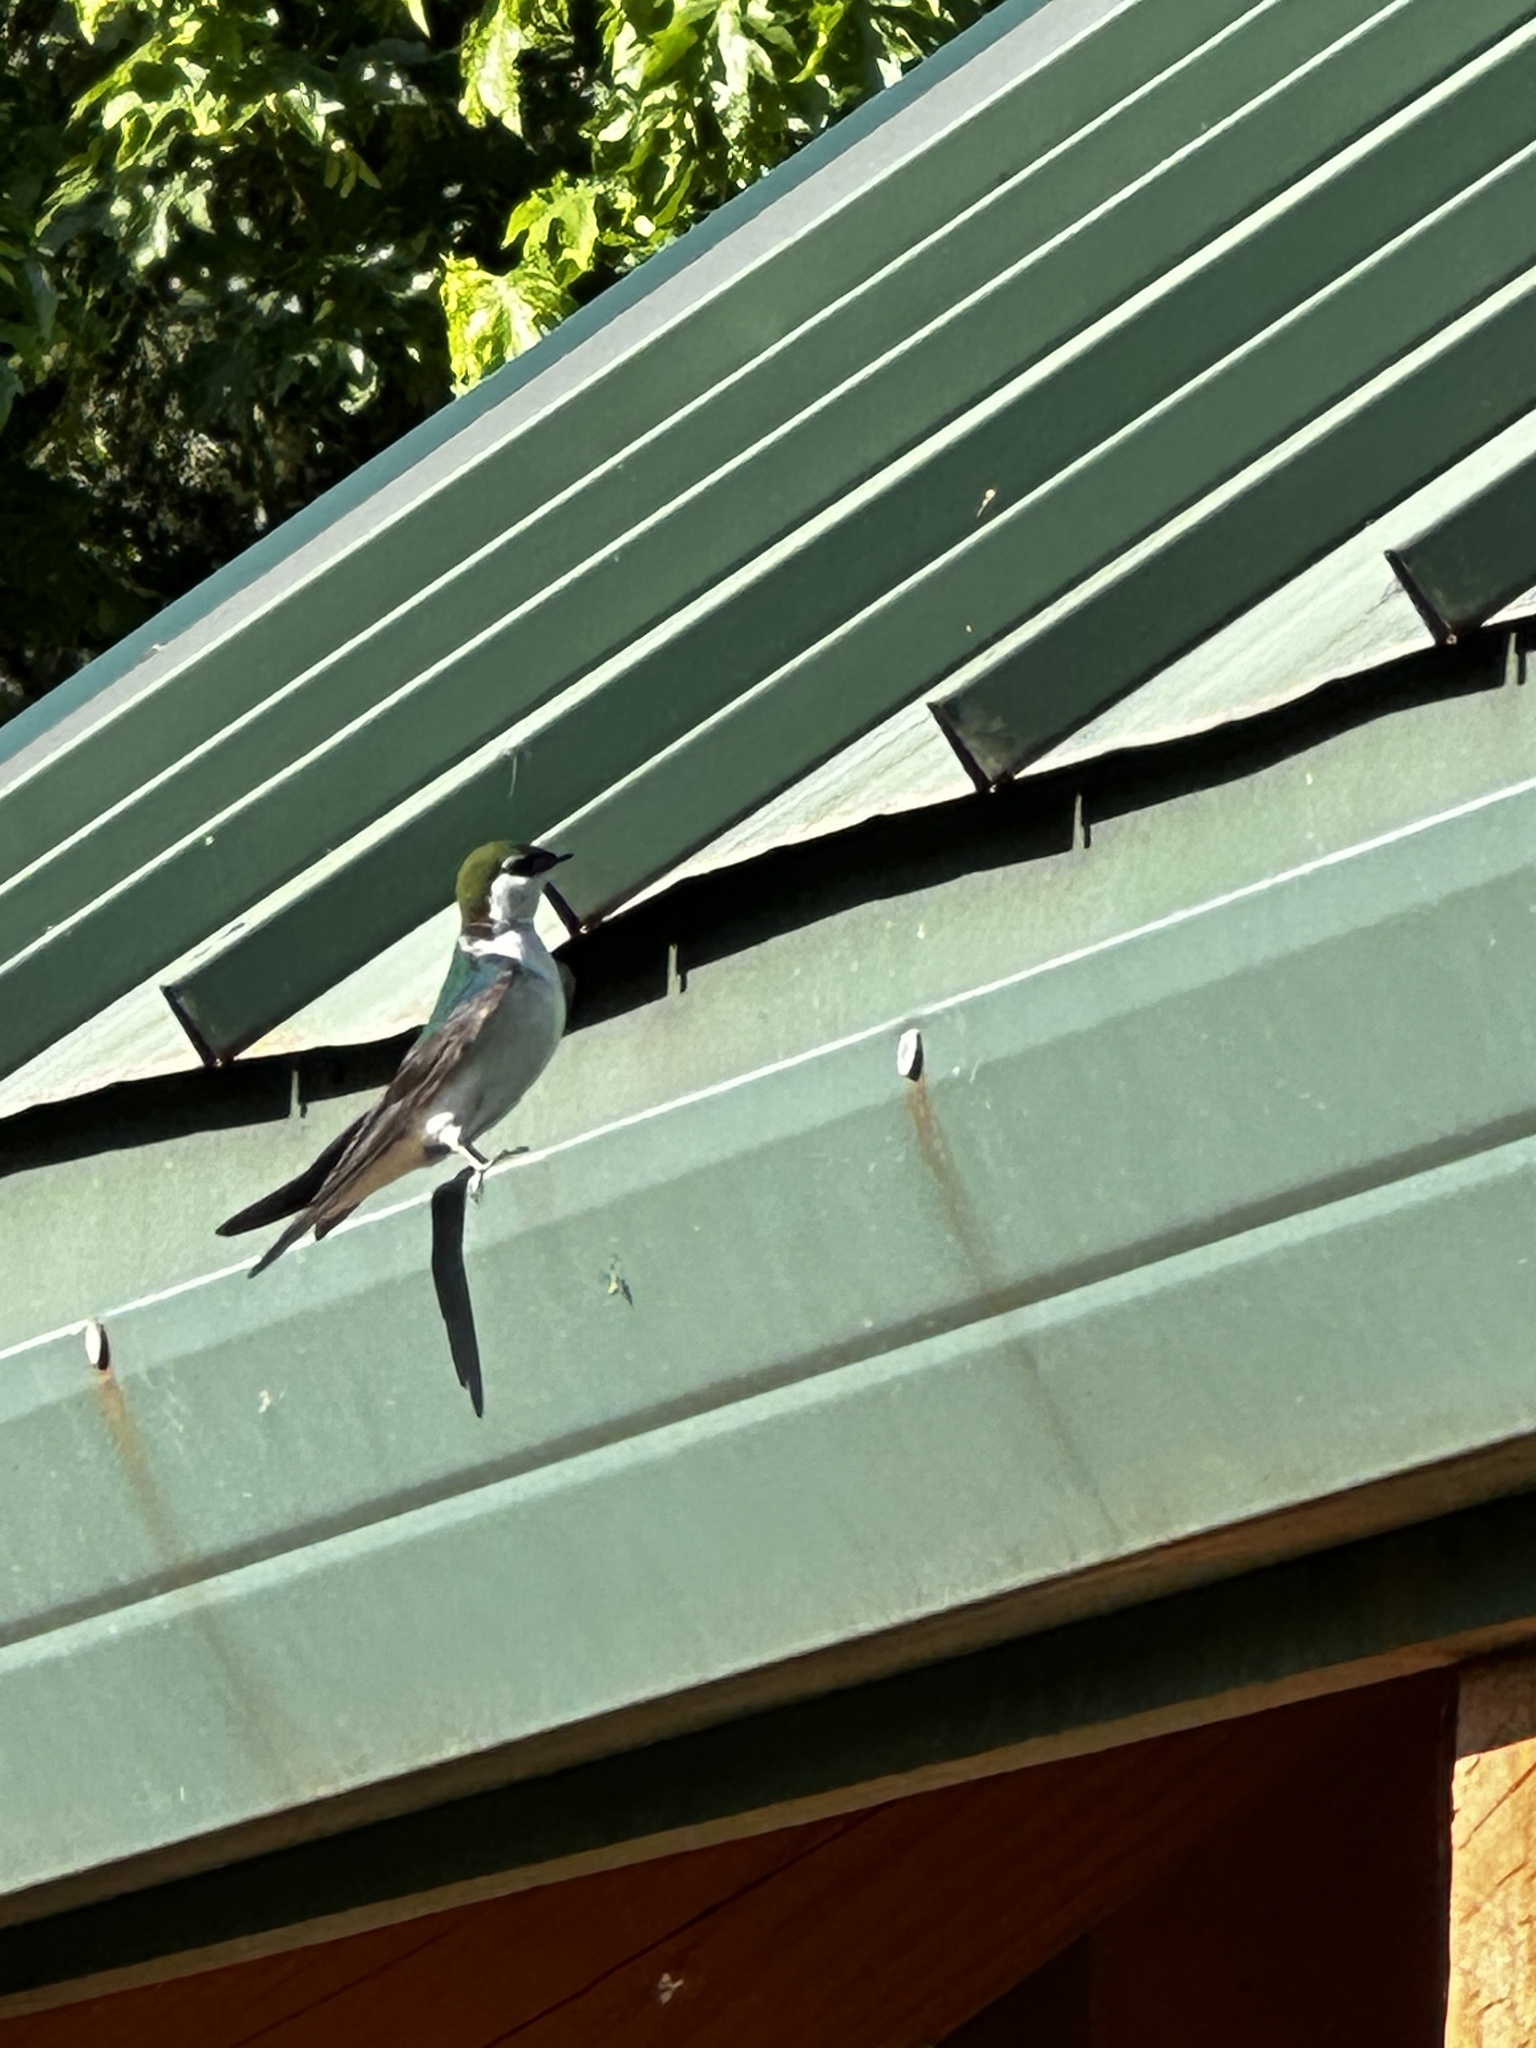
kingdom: Animalia
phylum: Chordata
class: Aves
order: Passeriformes
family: Hirundinidae
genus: Tachycineta
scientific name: Tachycineta thalassina
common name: Violet-green swallow
